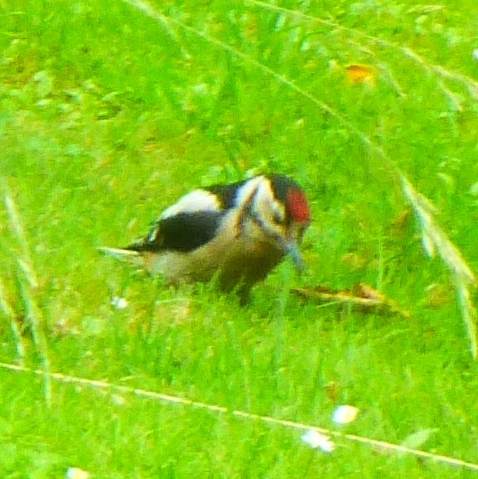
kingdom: Animalia
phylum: Chordata
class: Aves
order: Piciformes
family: Picidae
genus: Dendrocopos
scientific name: Dendrocopos major
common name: Great spotted woodpecker
